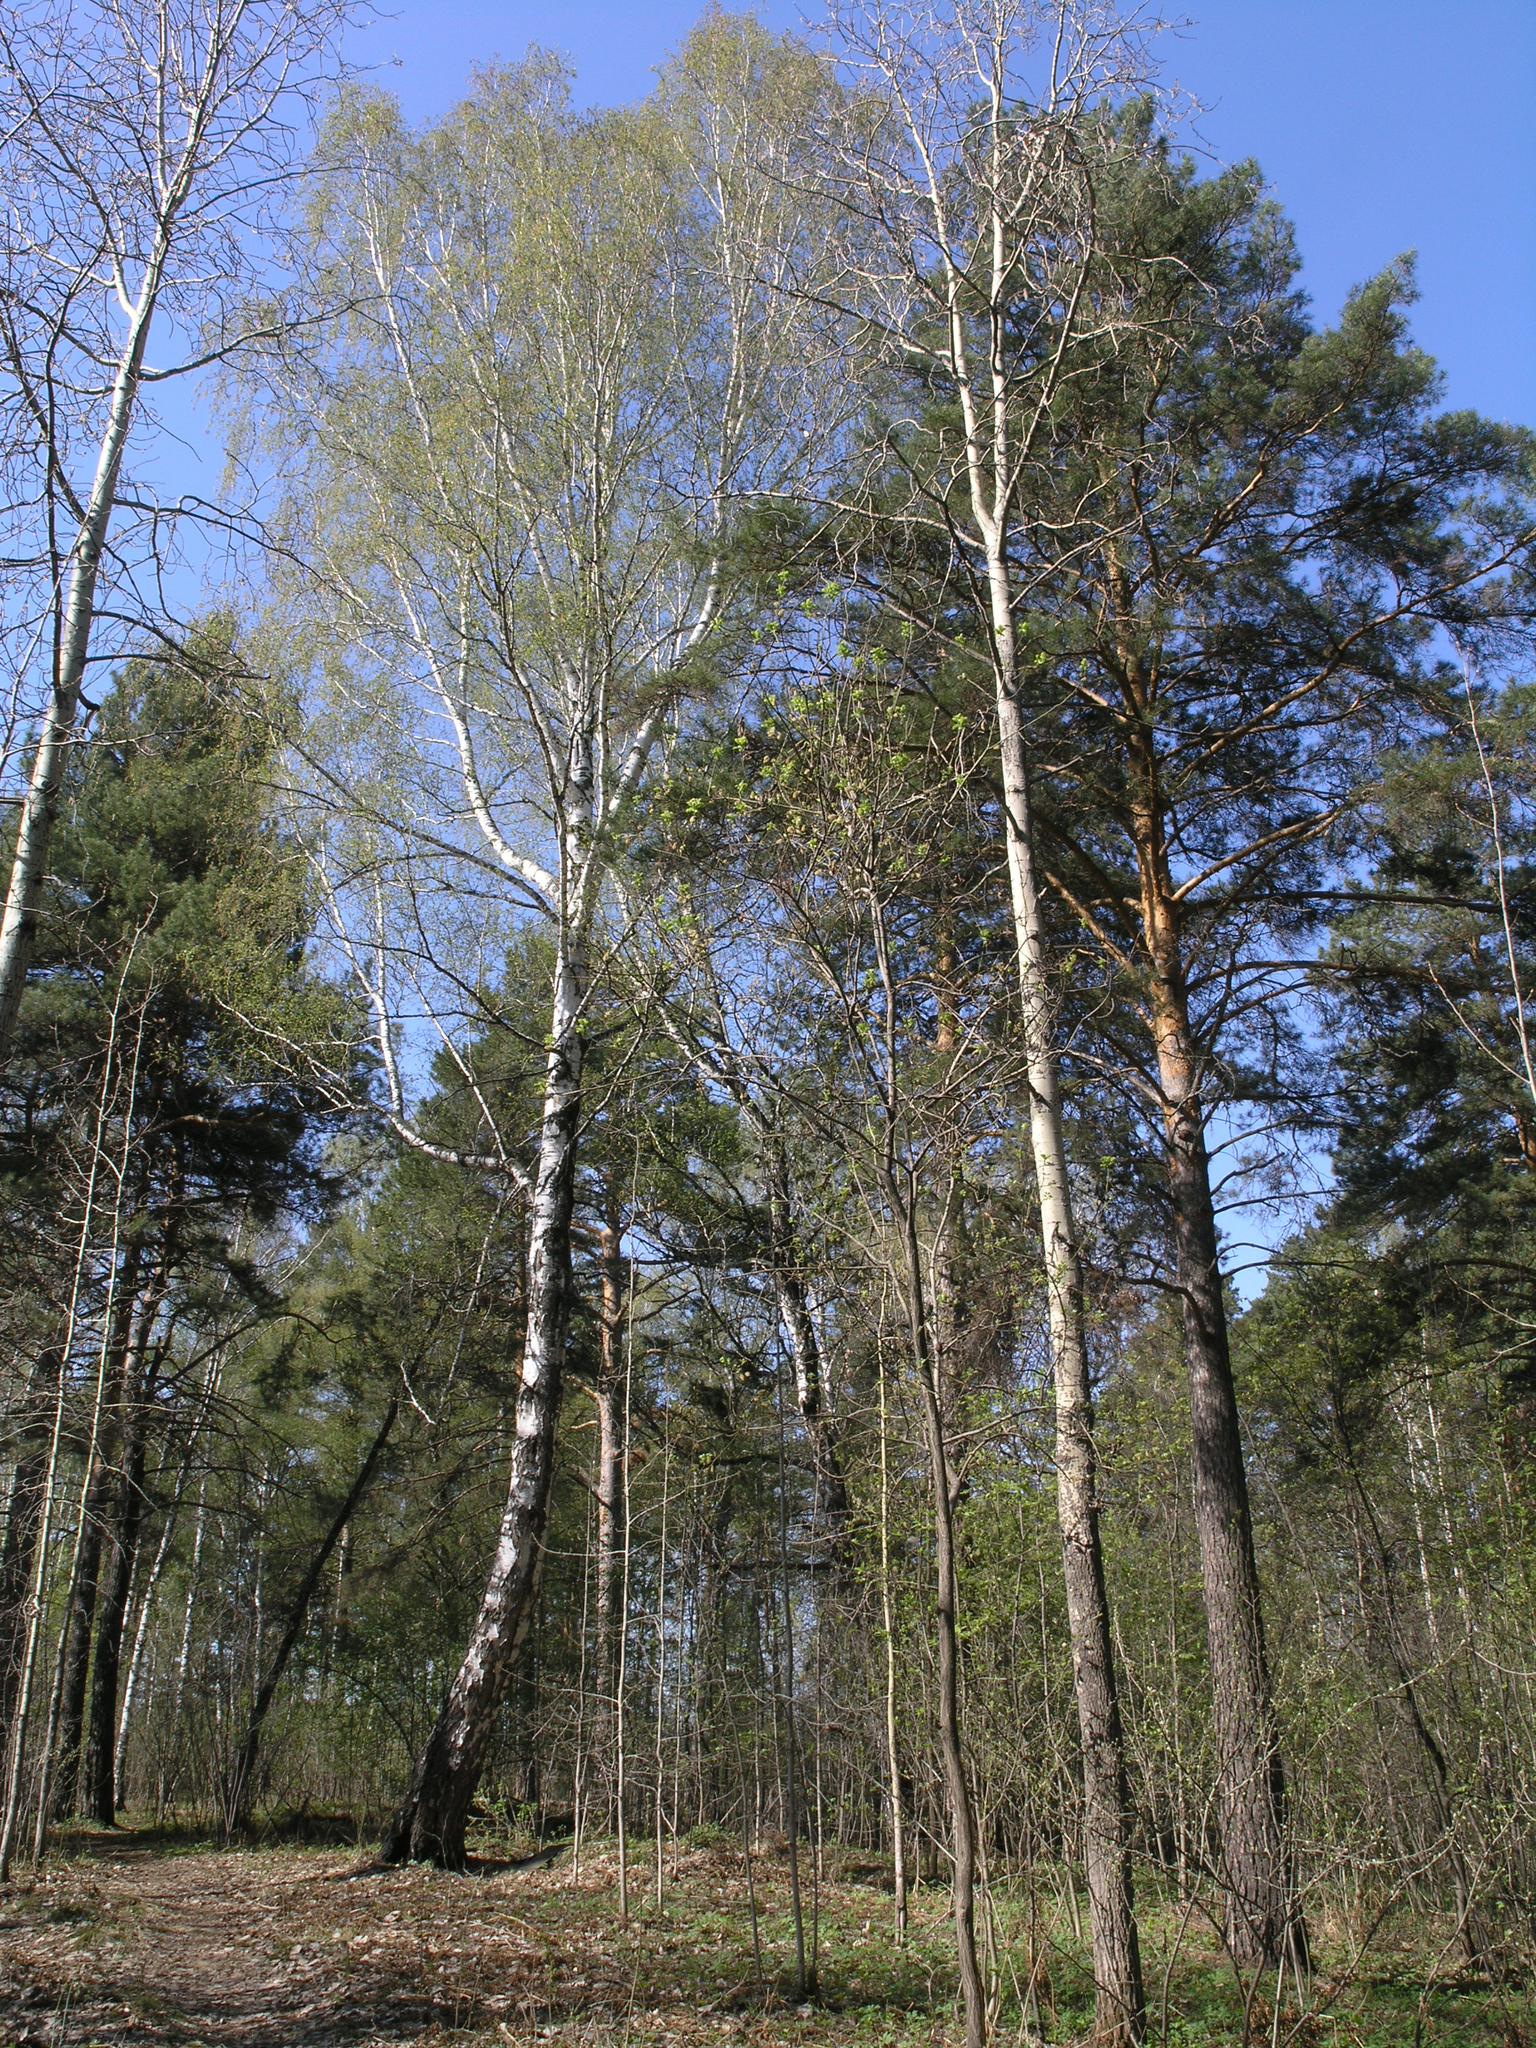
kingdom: Plantae
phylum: Tracheophyta
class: Magnoliopsida
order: Fagales
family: Betulaceae
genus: Betula
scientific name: Betula pendula
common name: Silver birch
